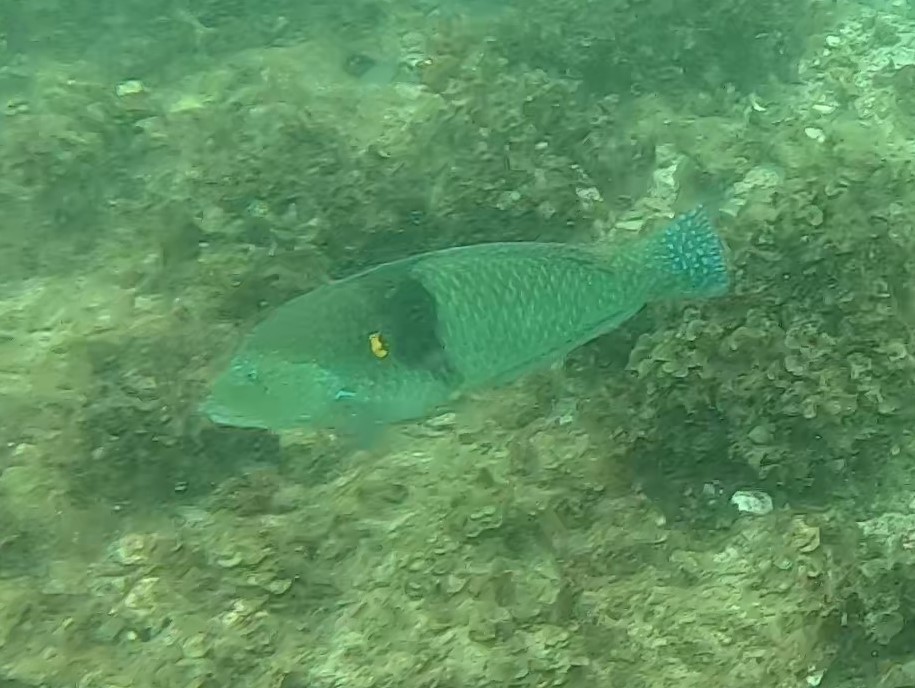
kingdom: Animalia
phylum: Chordata
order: Perciformes
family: Labridae
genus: Halichoeres
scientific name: Halichoeres nicholsi
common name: Spinster wrasse
